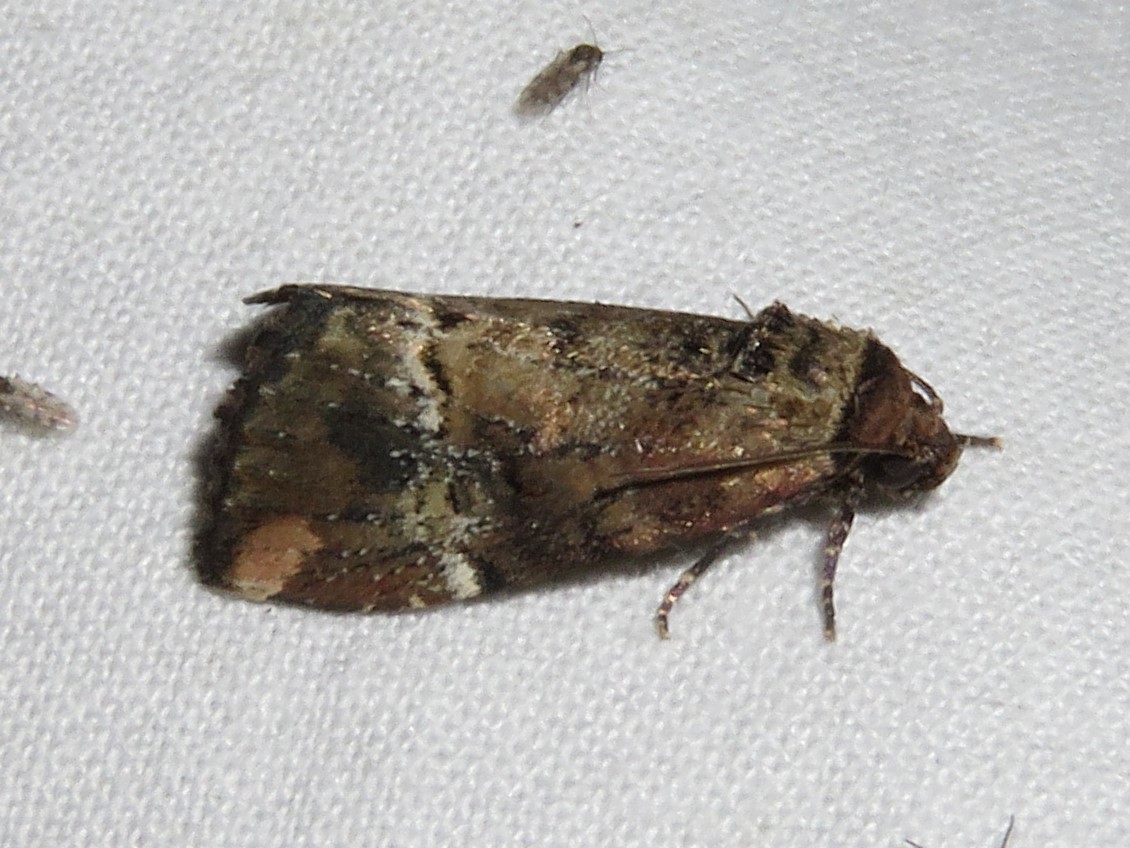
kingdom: Animalia
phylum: Arthropoda
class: Insecta
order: Lepidoptera
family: Noctuidae
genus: Elaphria
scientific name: Elaphria versicolor
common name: Fir harlequin
